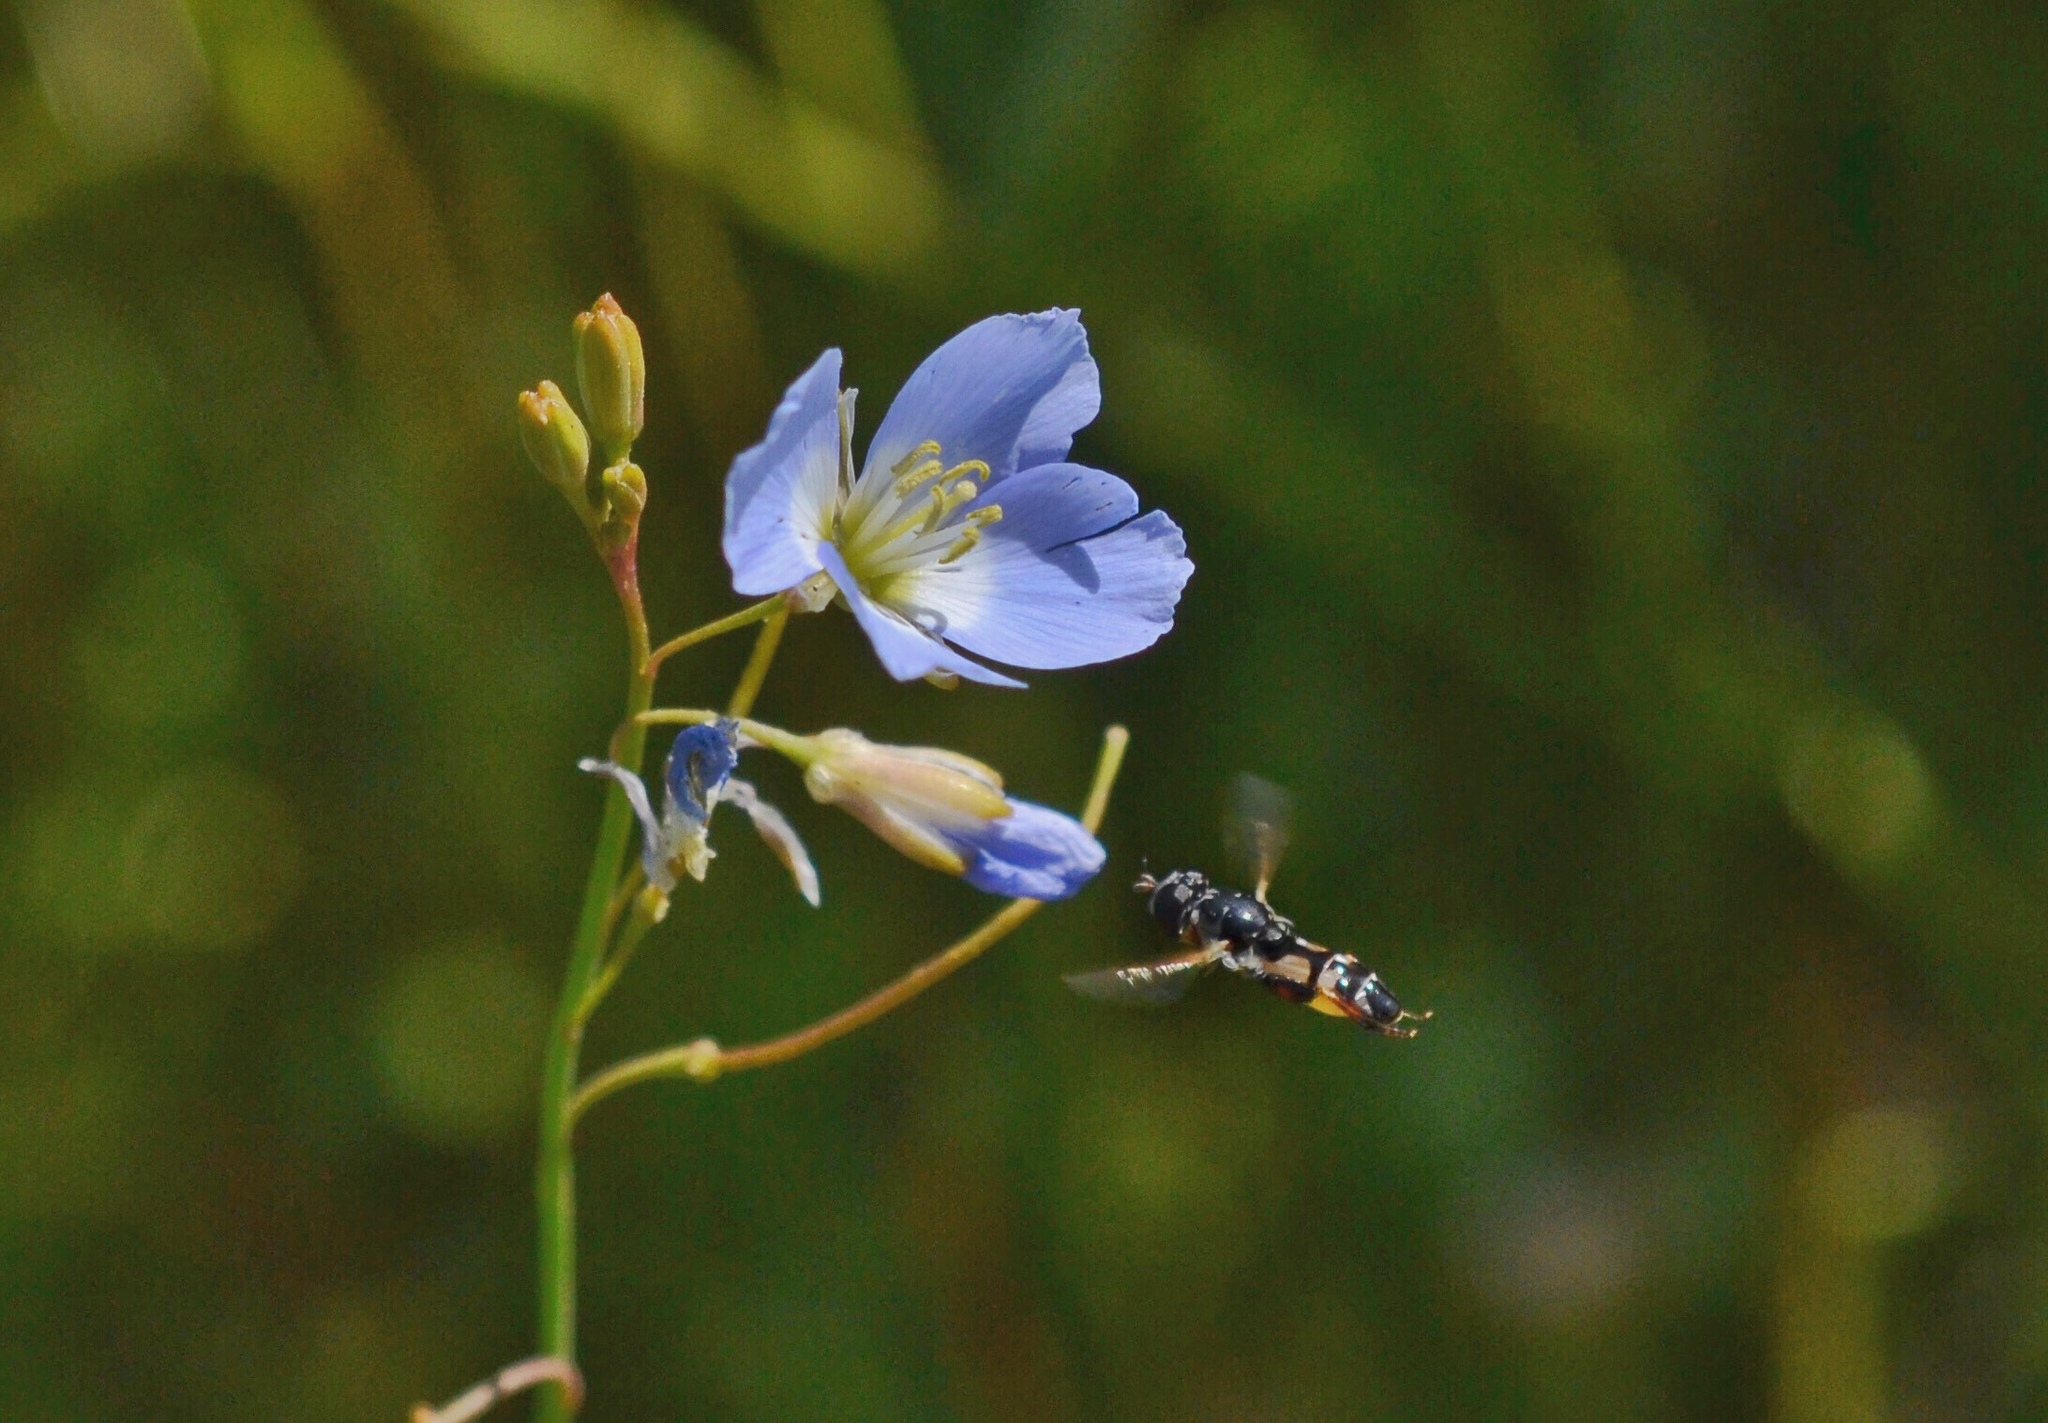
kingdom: Plantae
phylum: Tracheophyta
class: Magnoliopsida
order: Brassicales
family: Brassicaceae
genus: Heliophila
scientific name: Heliophila coronopifolia
